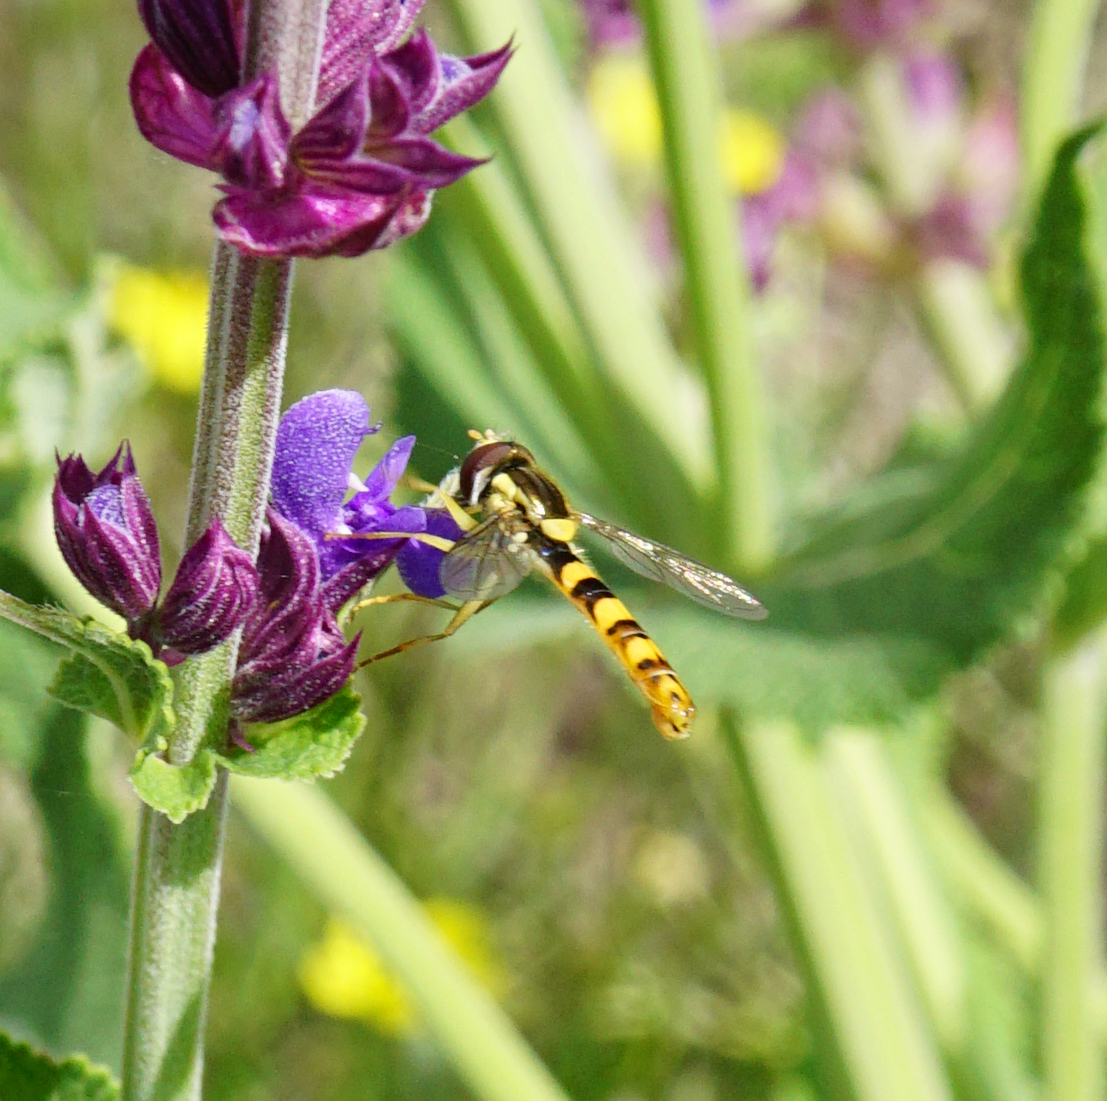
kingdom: Animalia
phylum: Arthropoda
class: Insecta
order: Diptera
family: Syrphidae
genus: Sphaerophoria
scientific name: Sphaerophoria scripta
